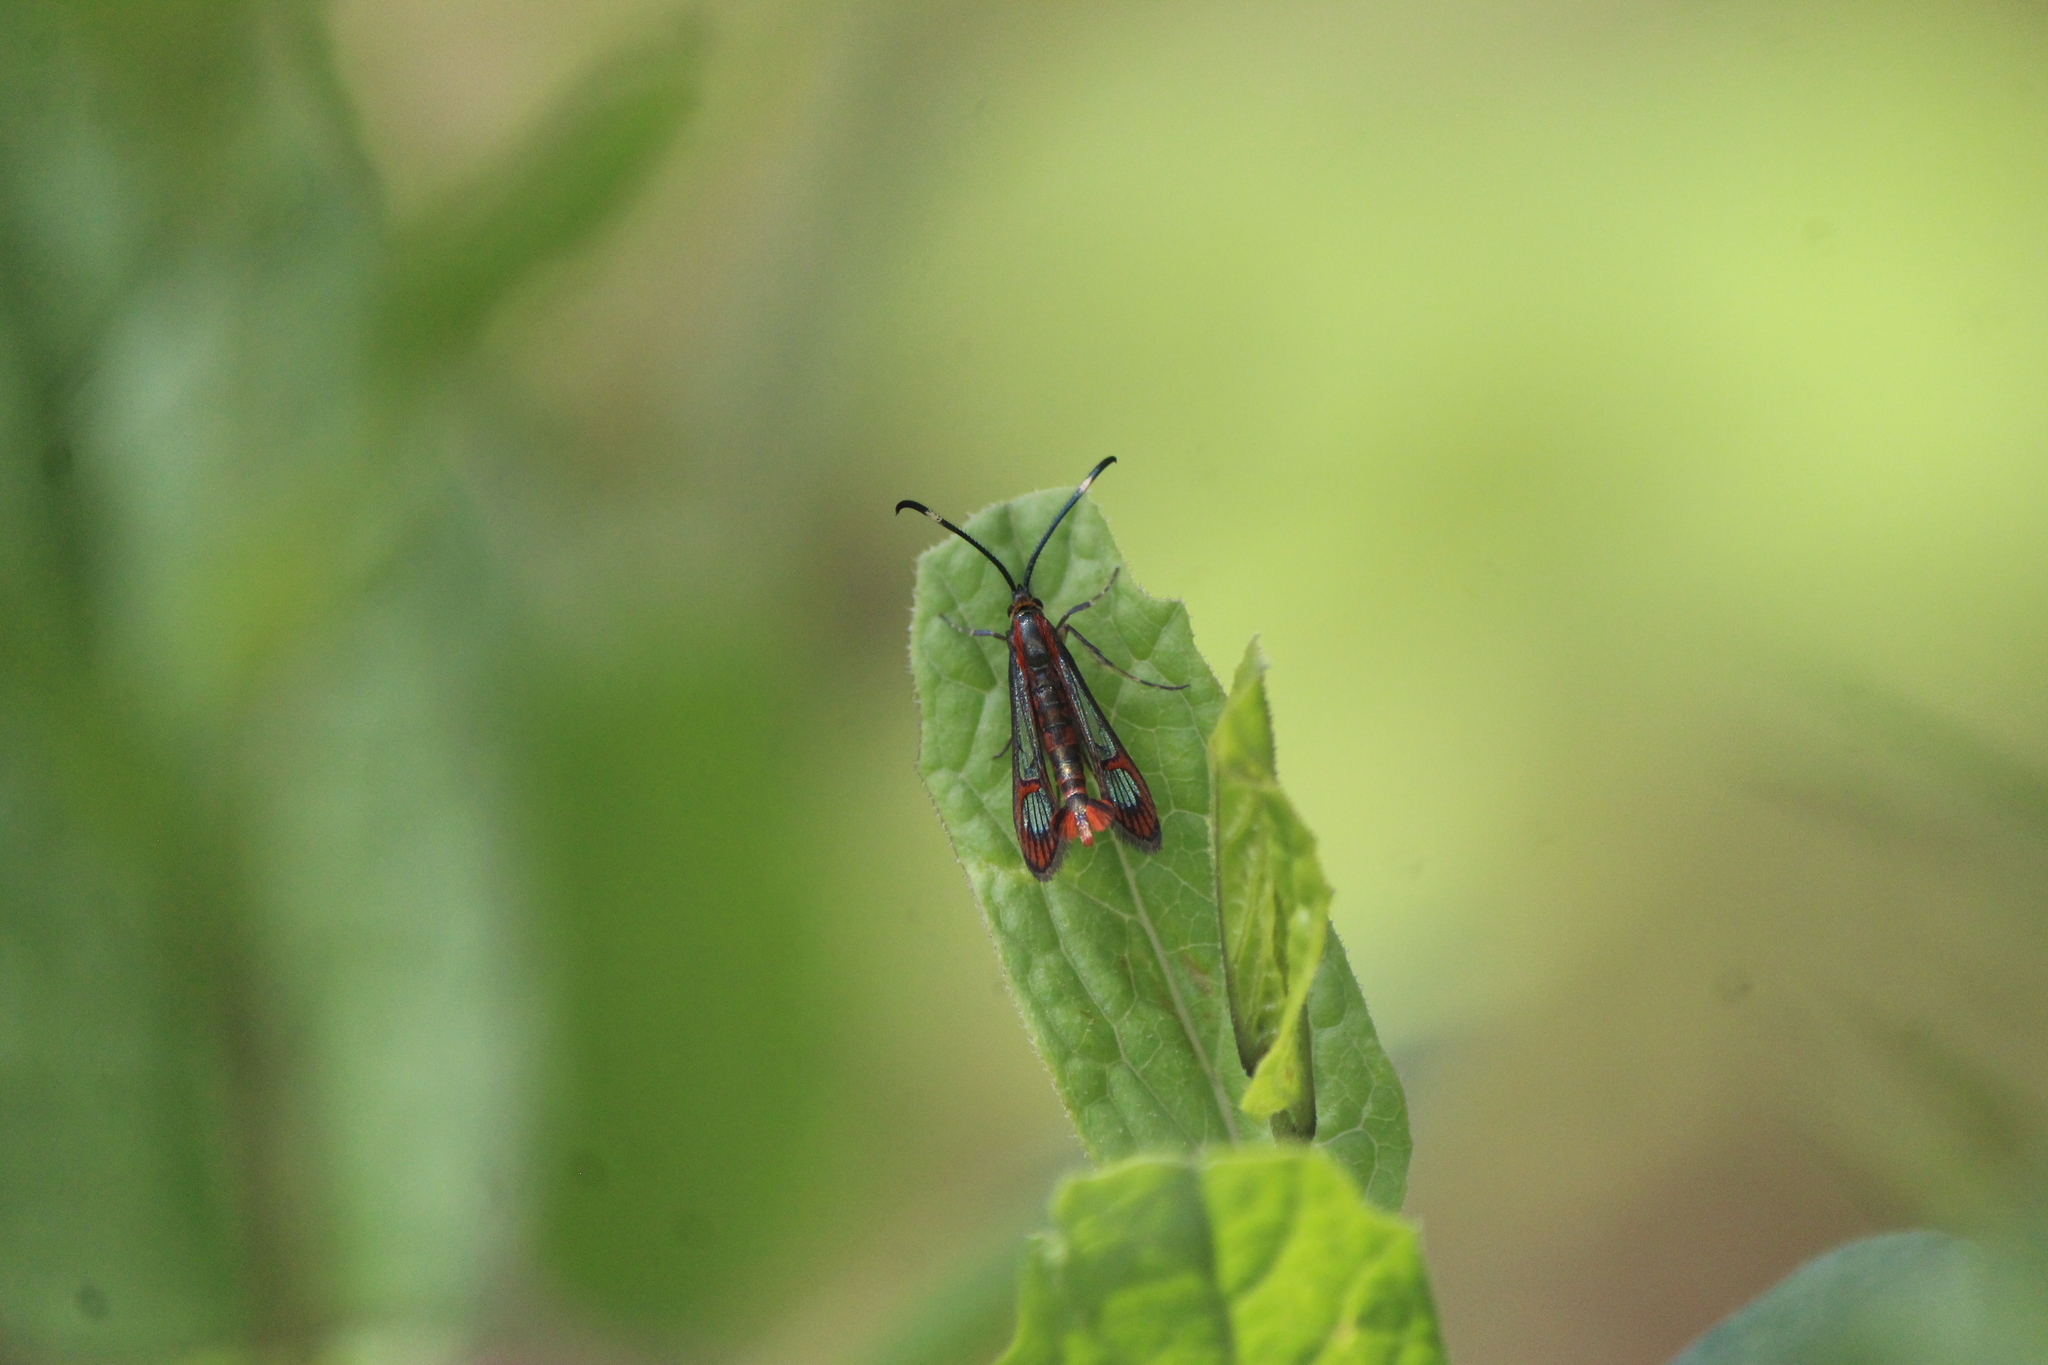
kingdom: Animalia
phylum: Arthropoda
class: Insecta
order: Lepidoptera
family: Sesiidae
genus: Carmenta
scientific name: Carmenta rubricincta
